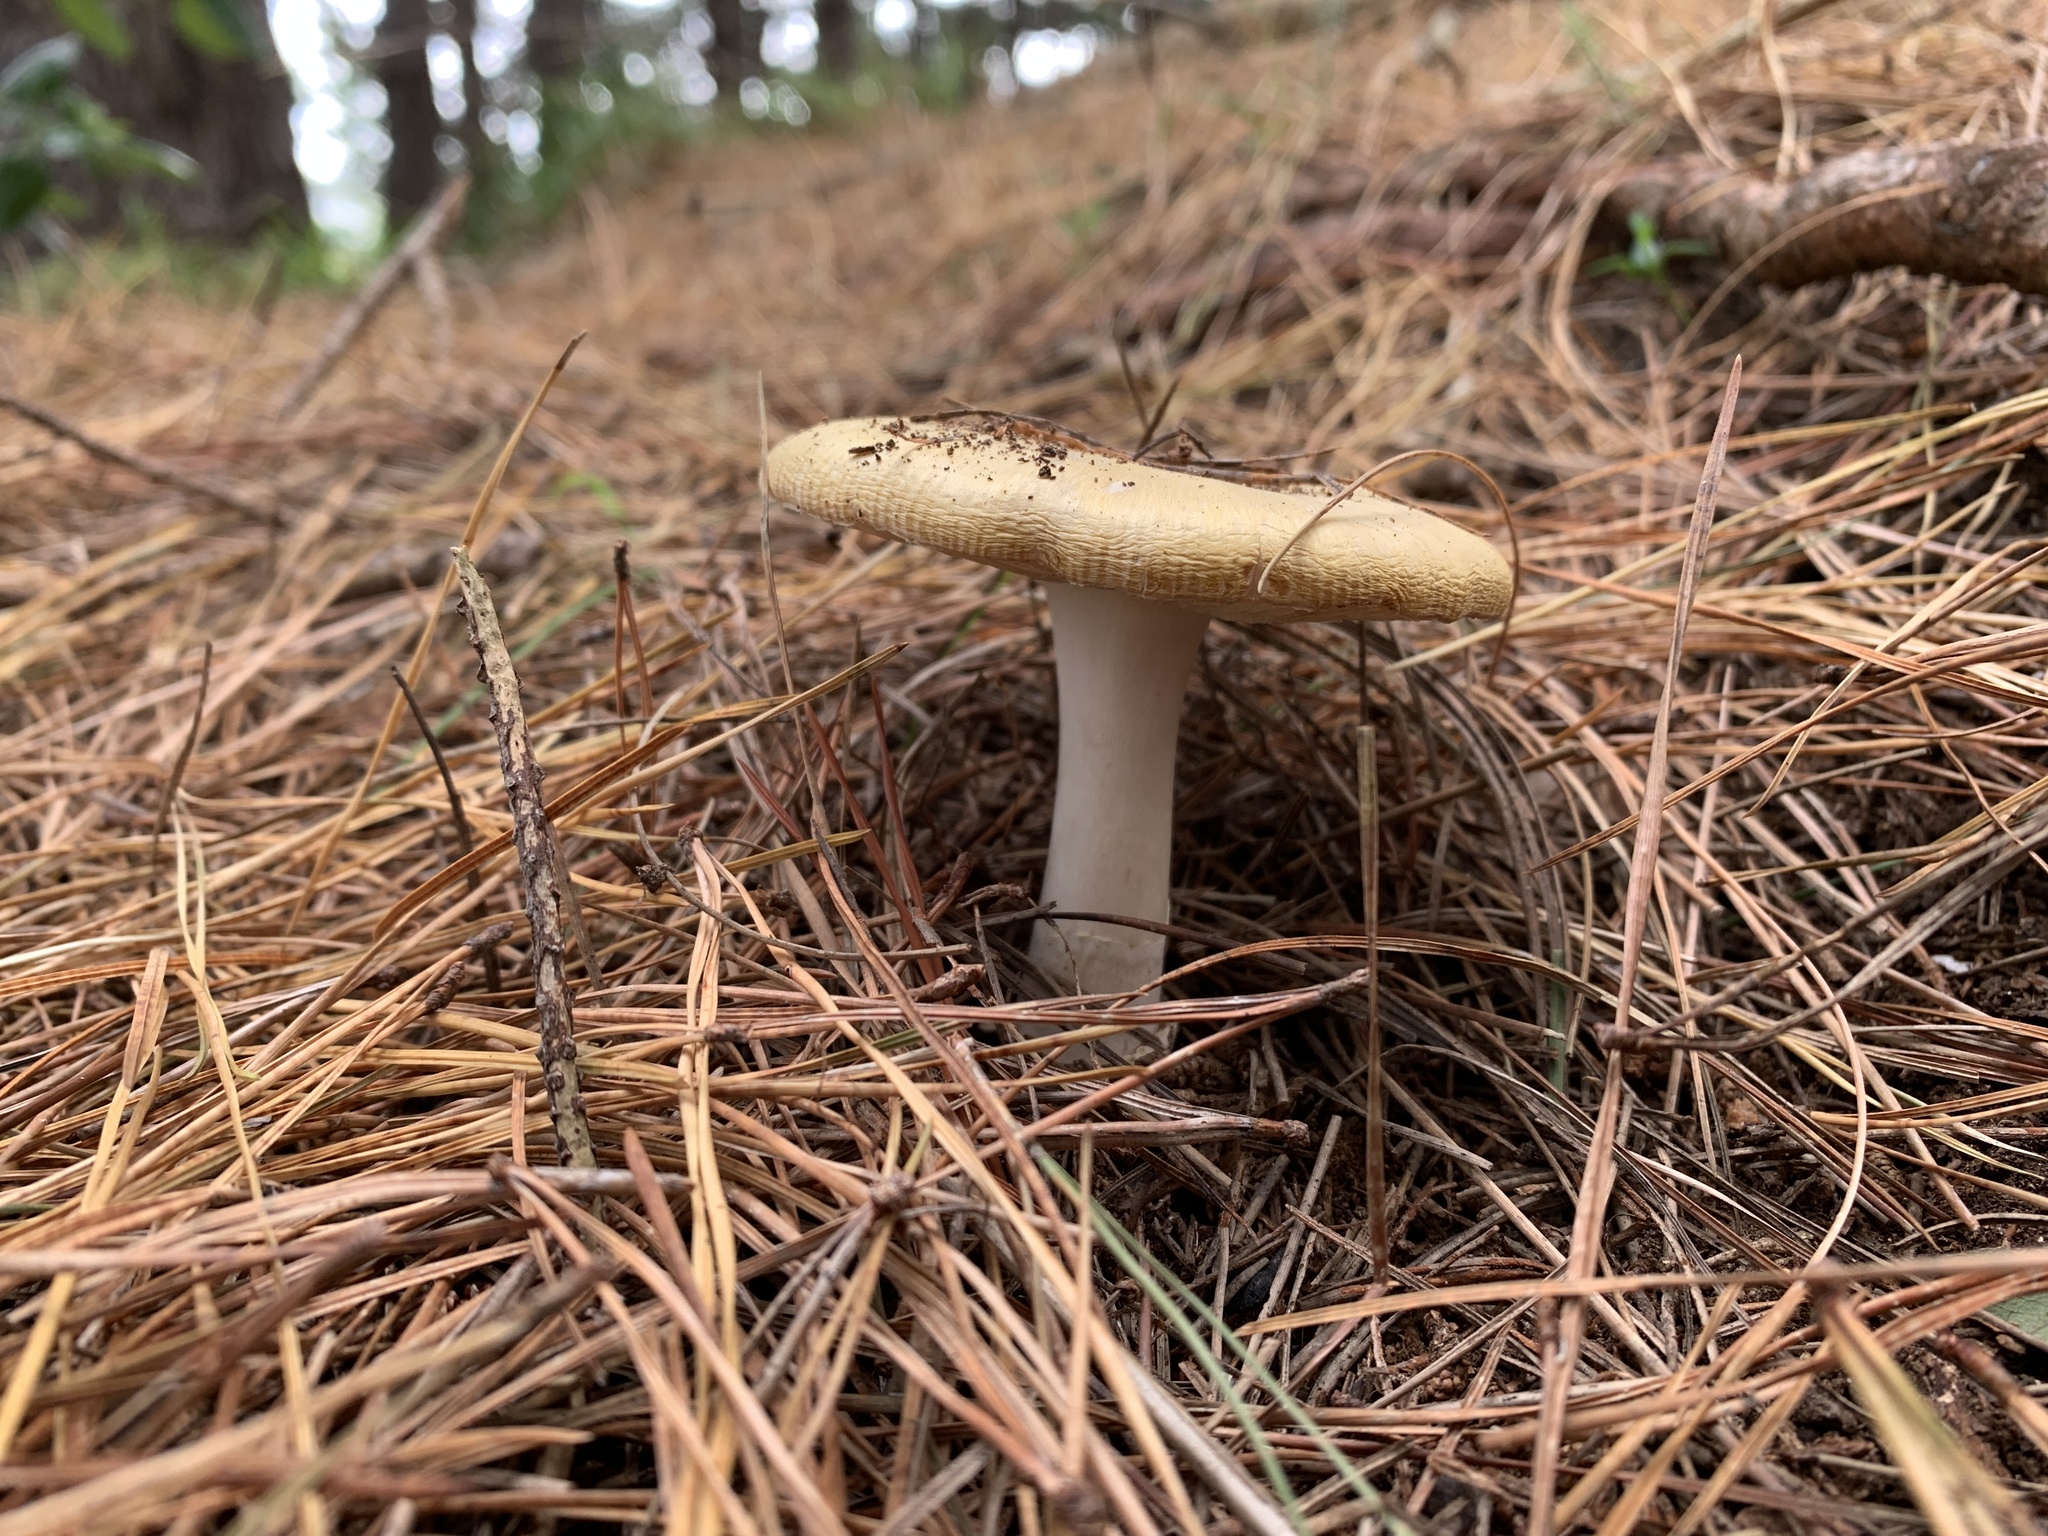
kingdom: Fungi
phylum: Basidiomycota
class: Agaricomycetes
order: Agaricales
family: Amanitaceae
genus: Amanita
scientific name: Amanita gemmata
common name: Jewelled amanita
